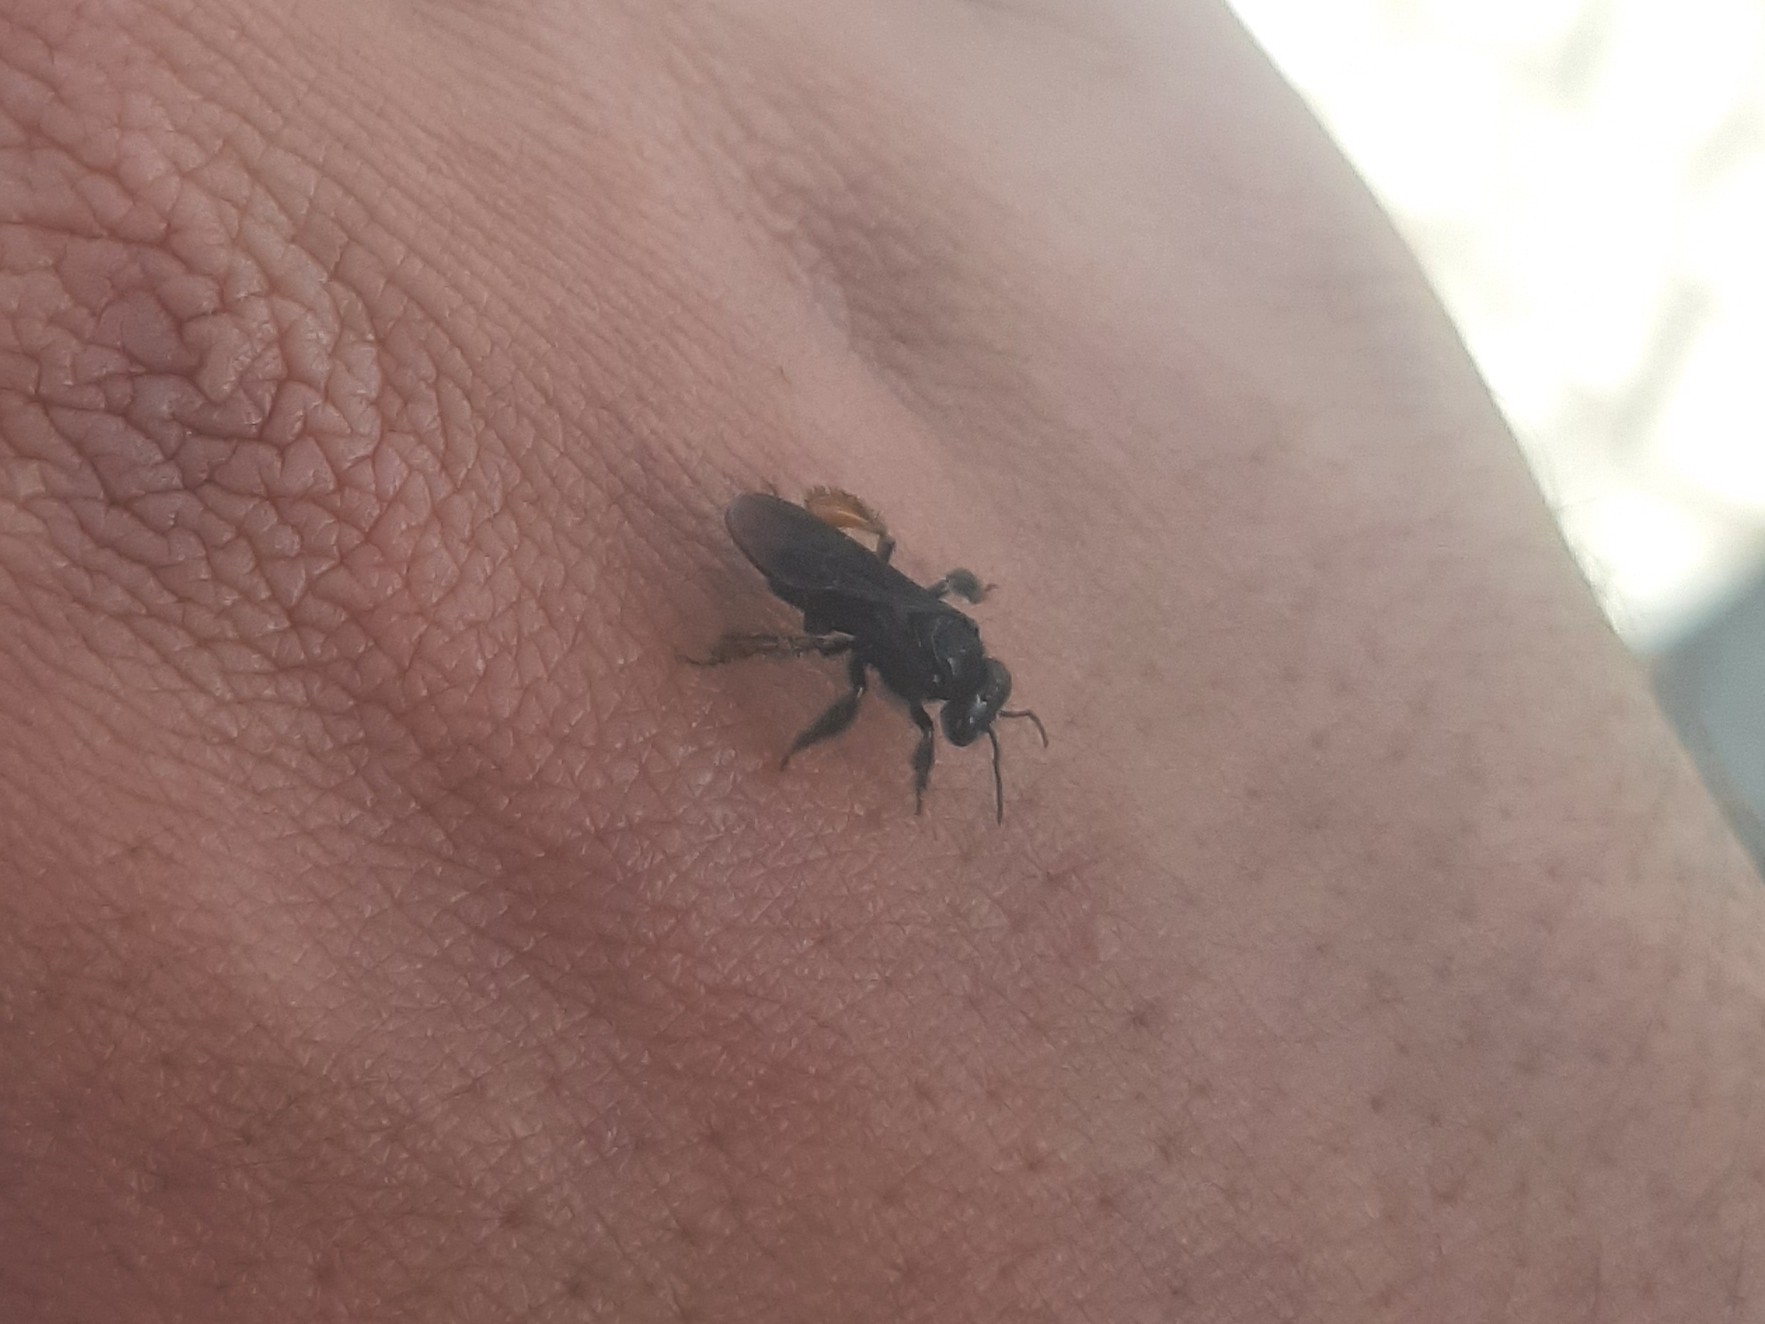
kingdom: Animalia
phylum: Arthropoda
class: Insecta
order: Hymenoptera
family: Apidae
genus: Trigona
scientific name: Trigona spinipes
